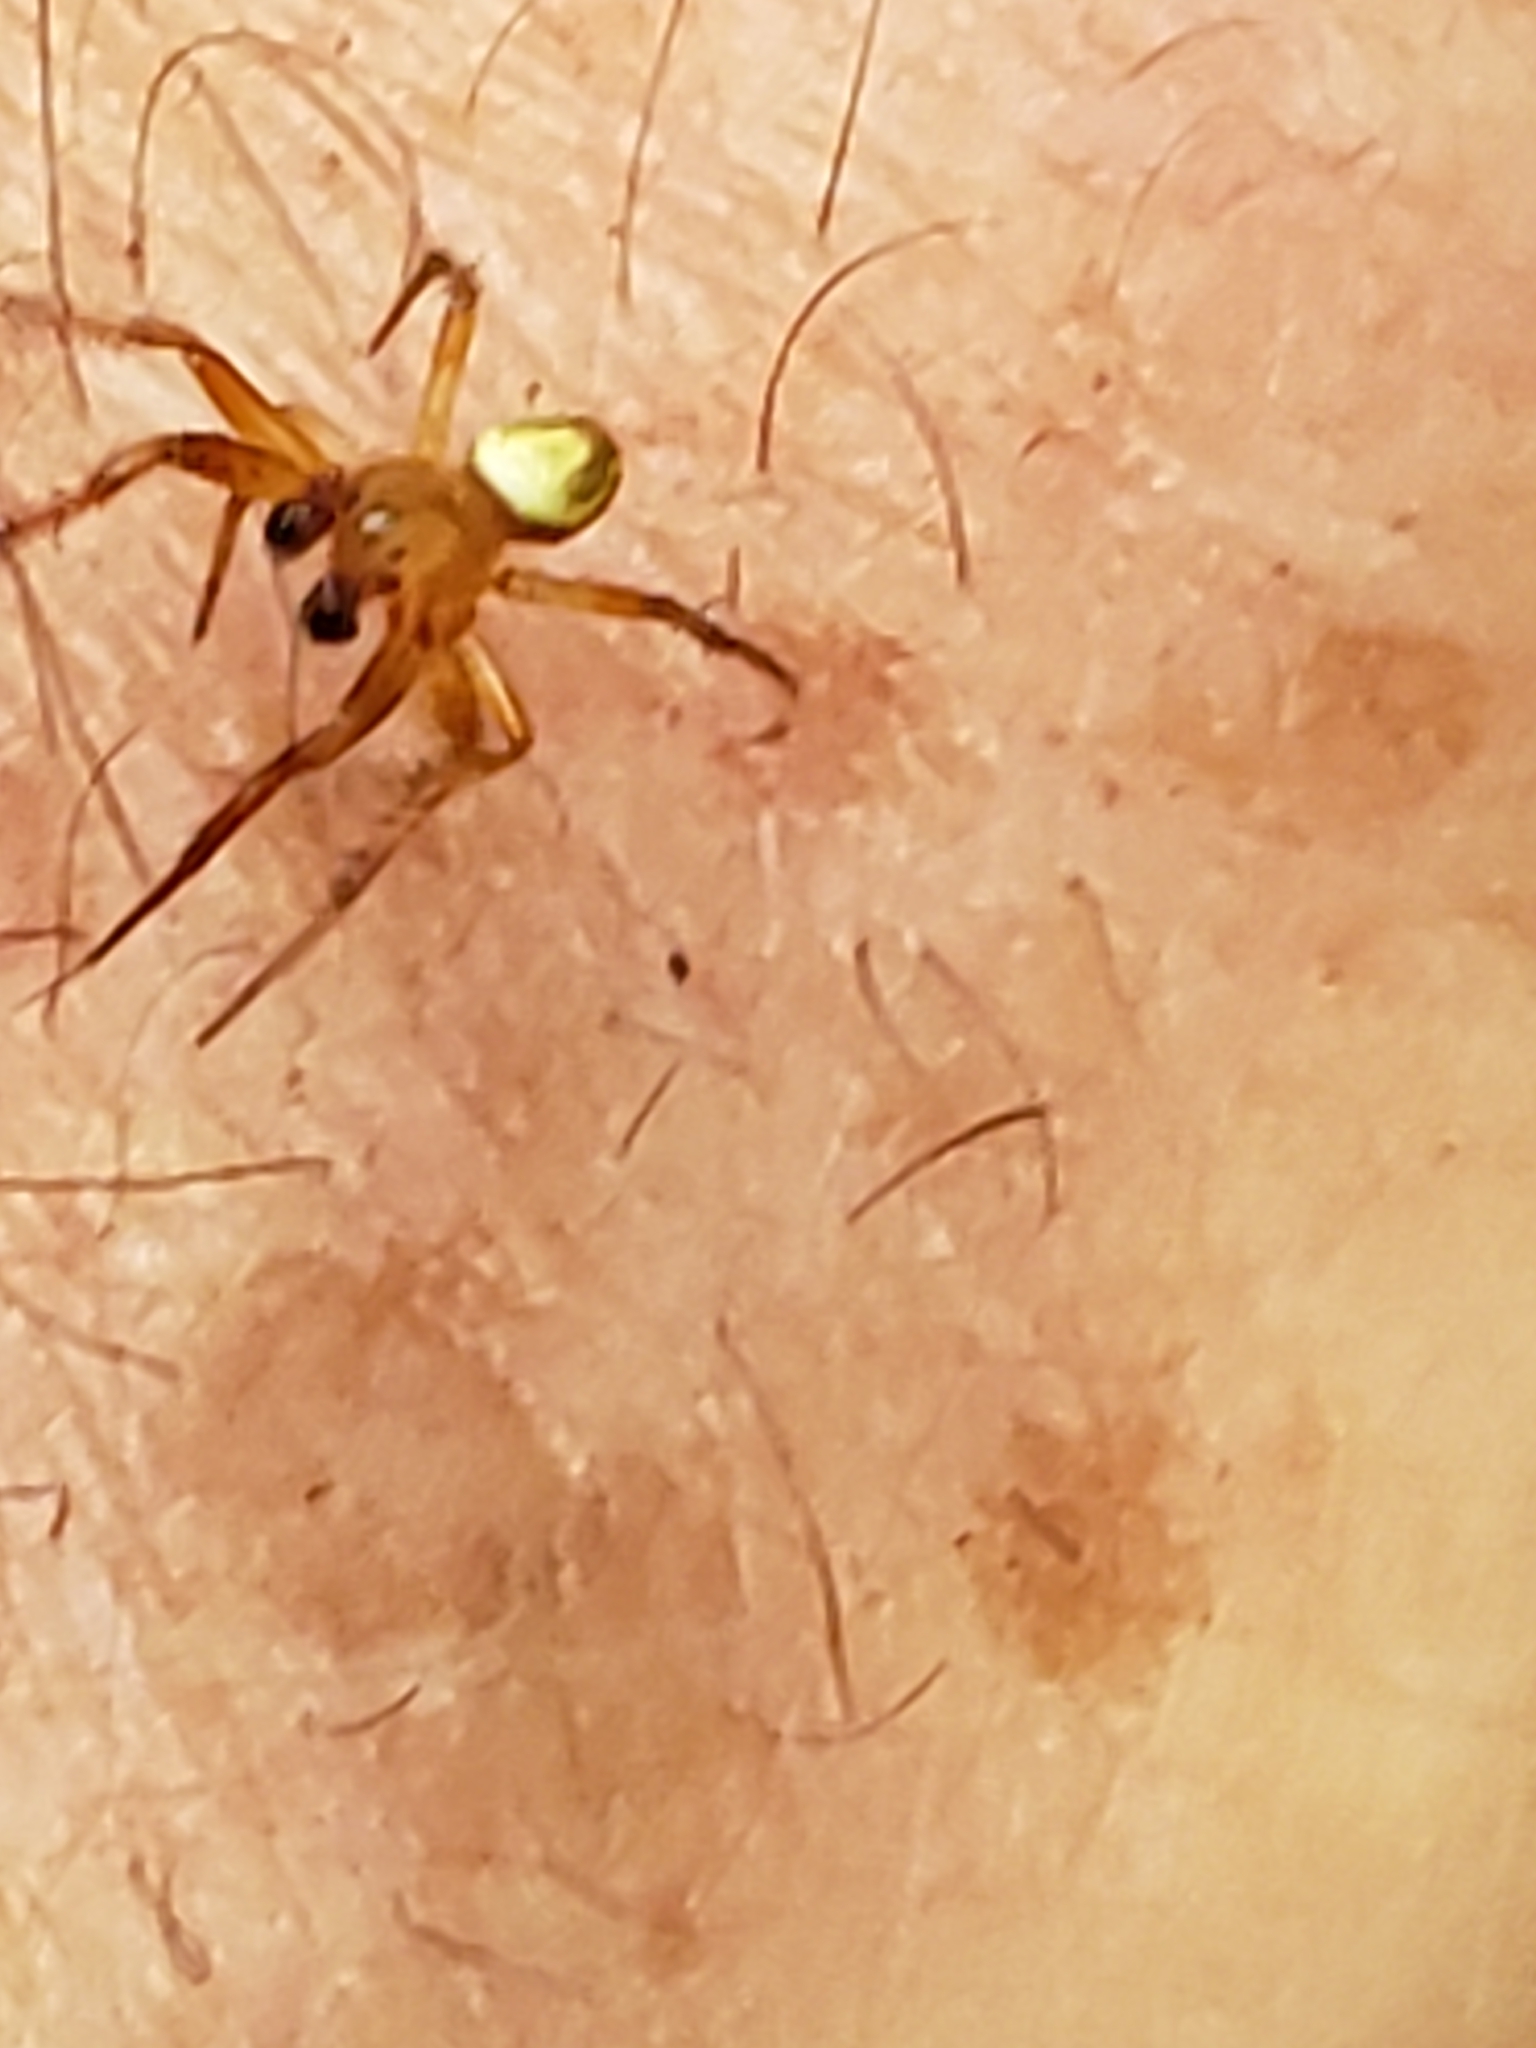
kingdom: Animalia
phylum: Arthropoda
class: Arachnida
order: Araneae
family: Araneidae
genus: Araniella
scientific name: Araniella displicata
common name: Sixspotted orb weaver
